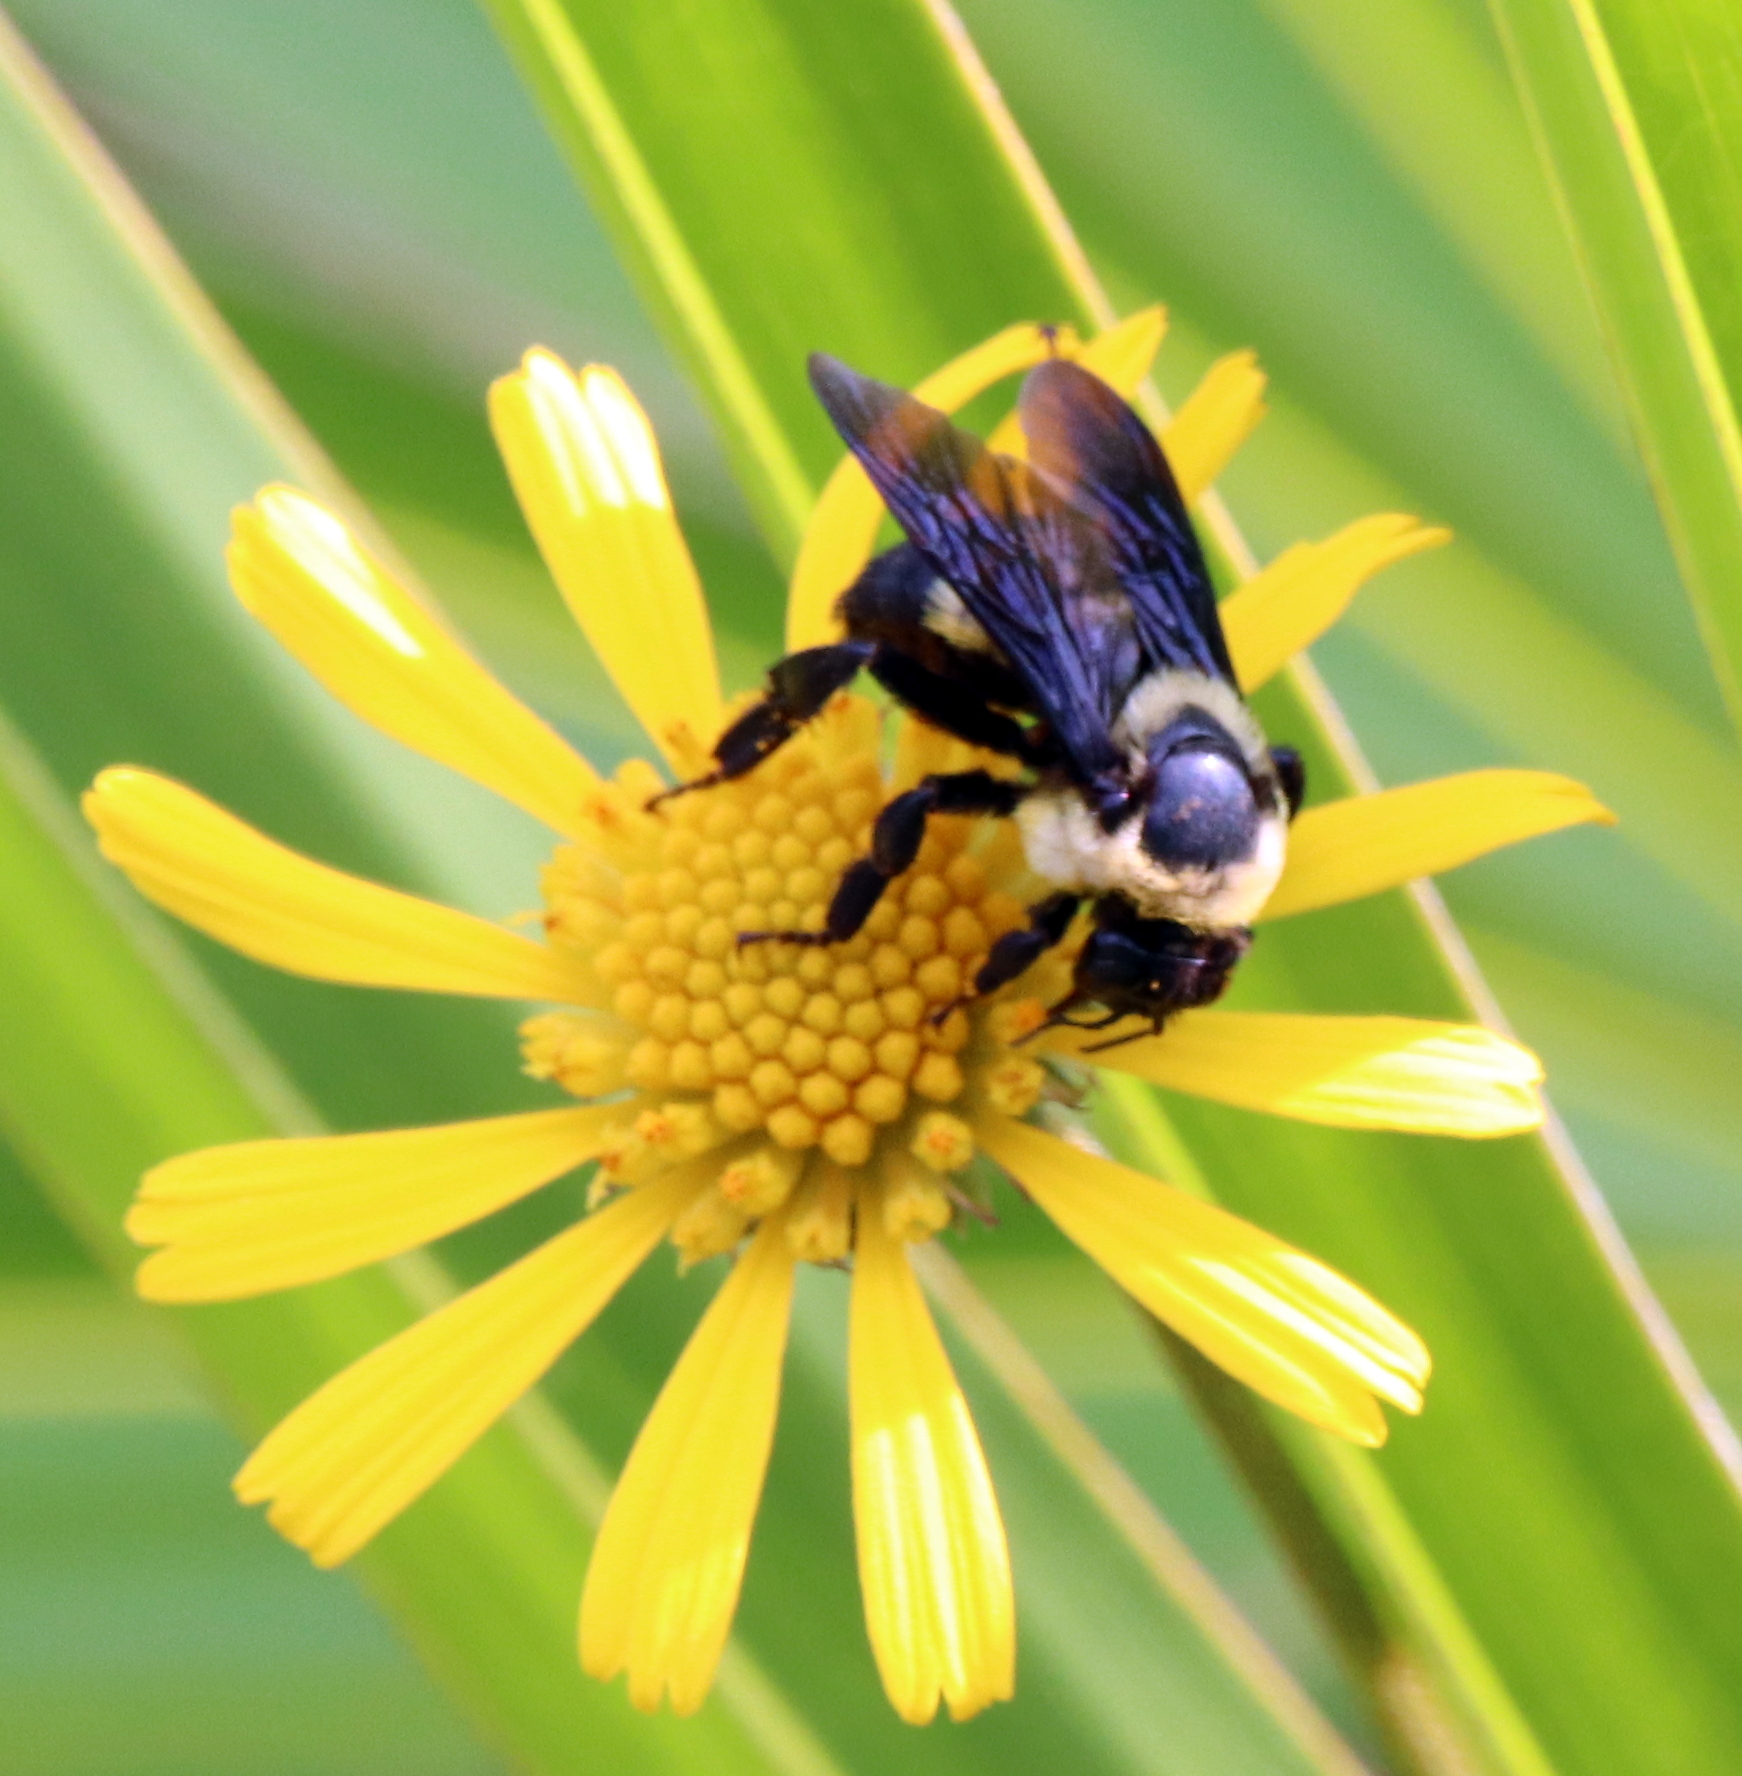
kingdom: Animalia
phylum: Arthropoda
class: Insecta
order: Hymenoptera
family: Apidae
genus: Bombus
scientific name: Bombus fraternus
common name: Southern plains bumble bee
